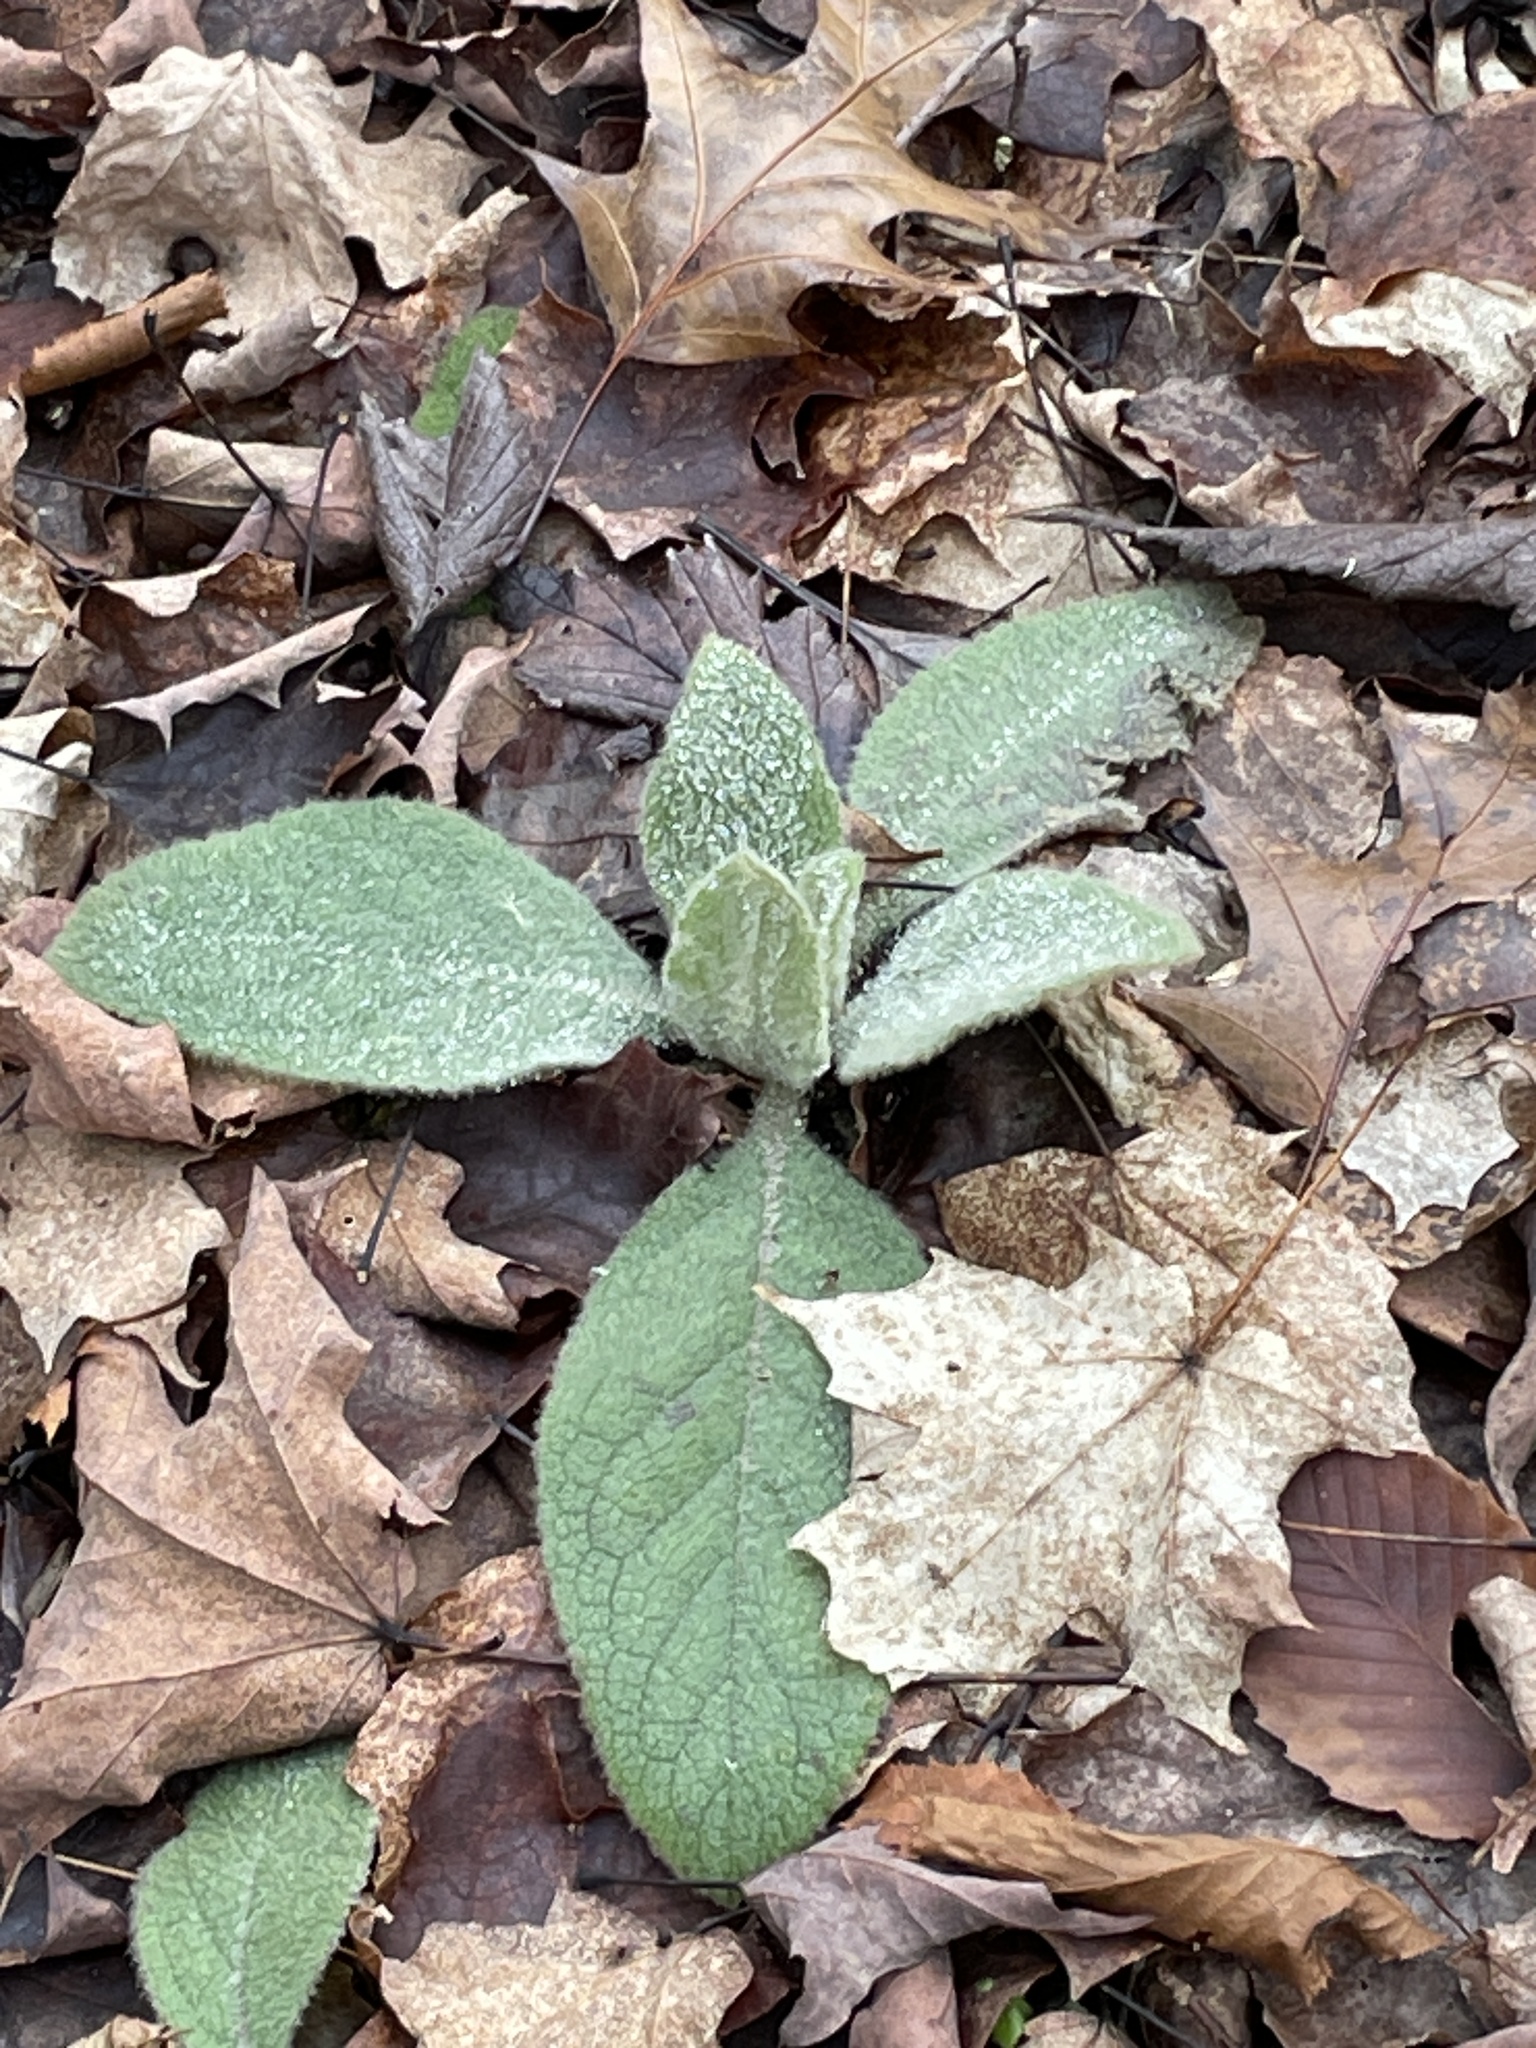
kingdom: Plantae
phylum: Tracheophyta
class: Magnoliopsida
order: Lamiales
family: Scrophulariaceae
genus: Verbascum
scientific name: Verbascum thapsus
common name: Common mullein
